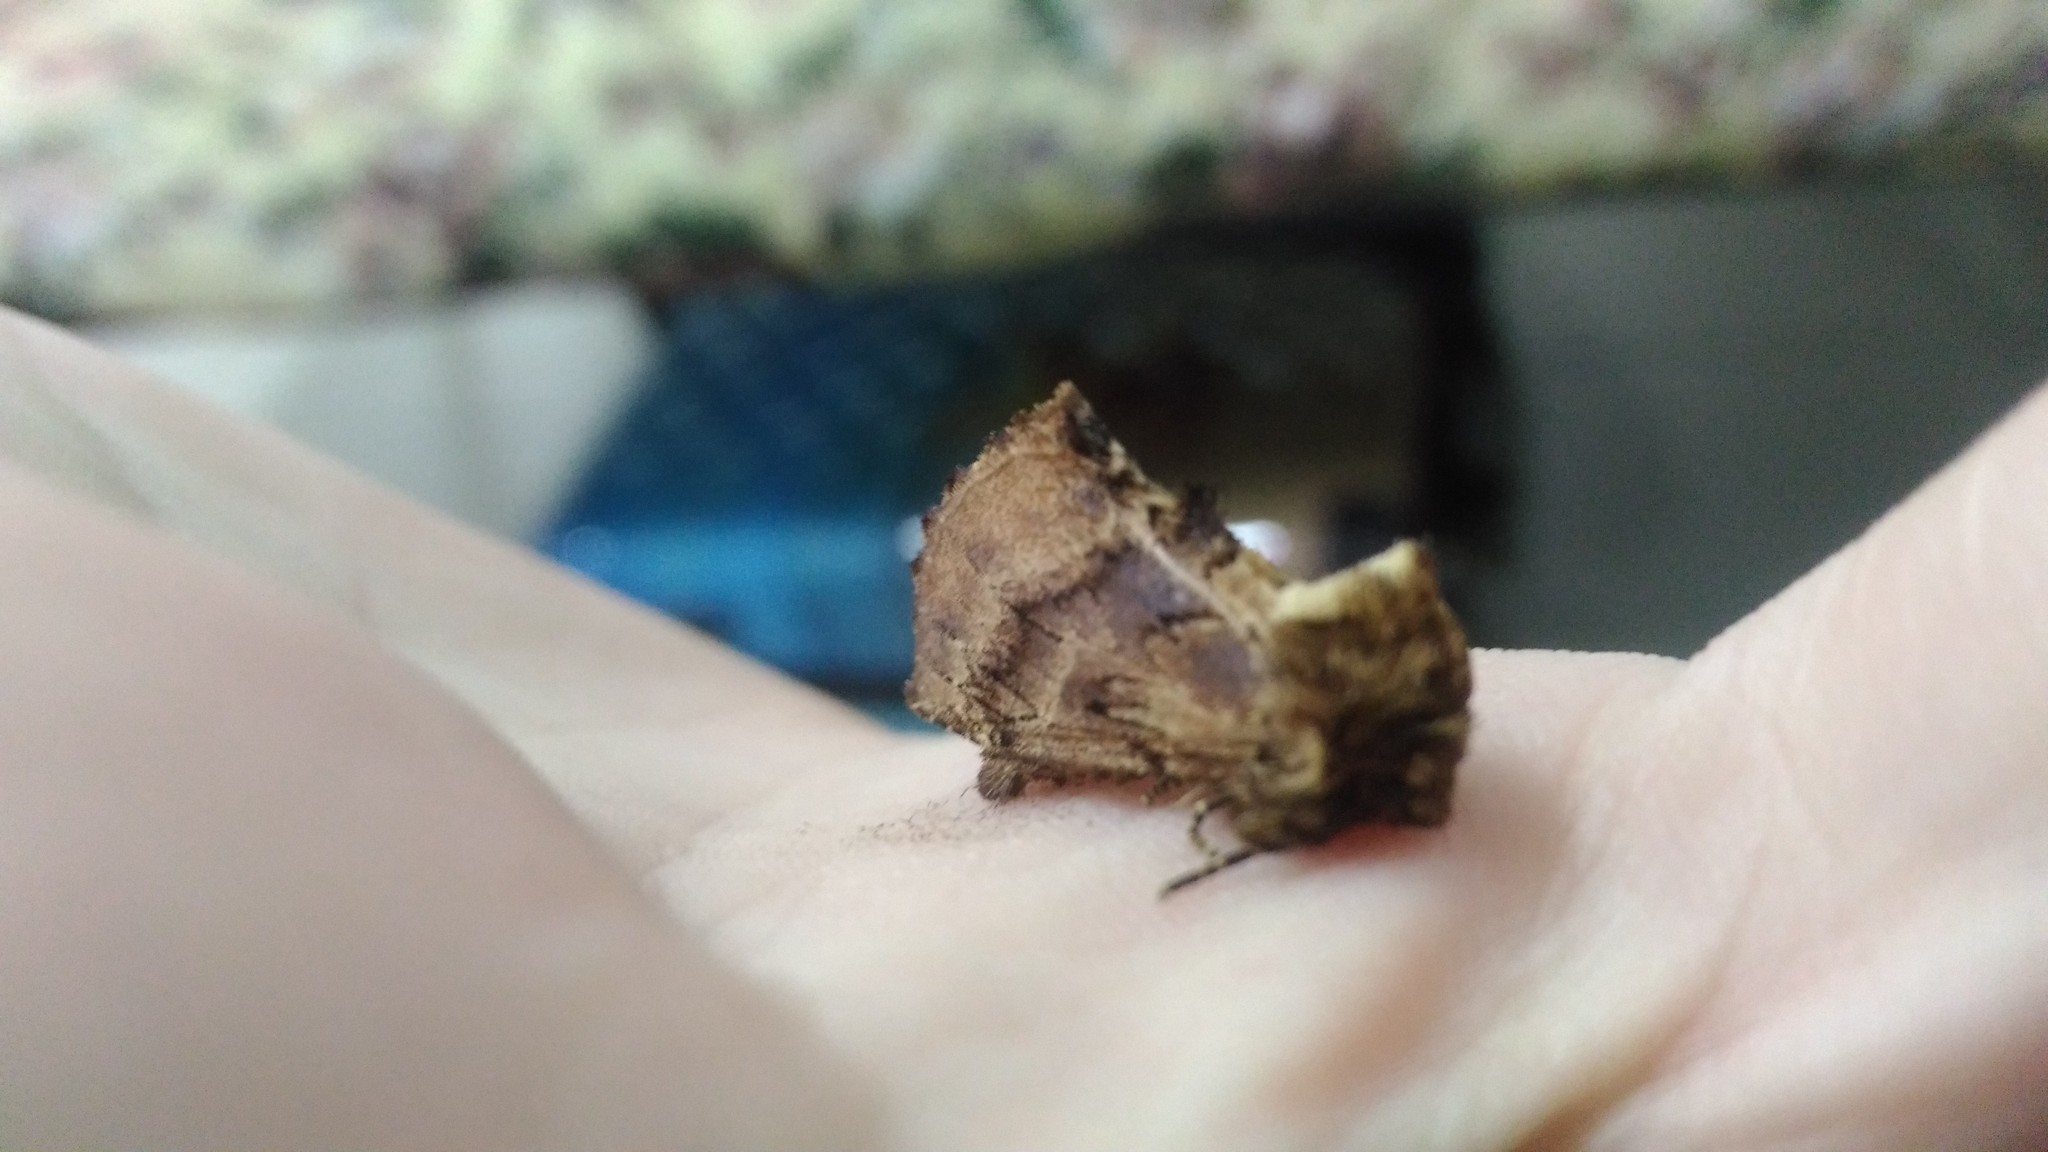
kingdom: Animalia
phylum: Arthropoda
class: Insecta
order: Lepidoptera
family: Notodontidae
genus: Ptilodon
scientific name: Ptilodon capucina
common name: Coxcomb prominent
